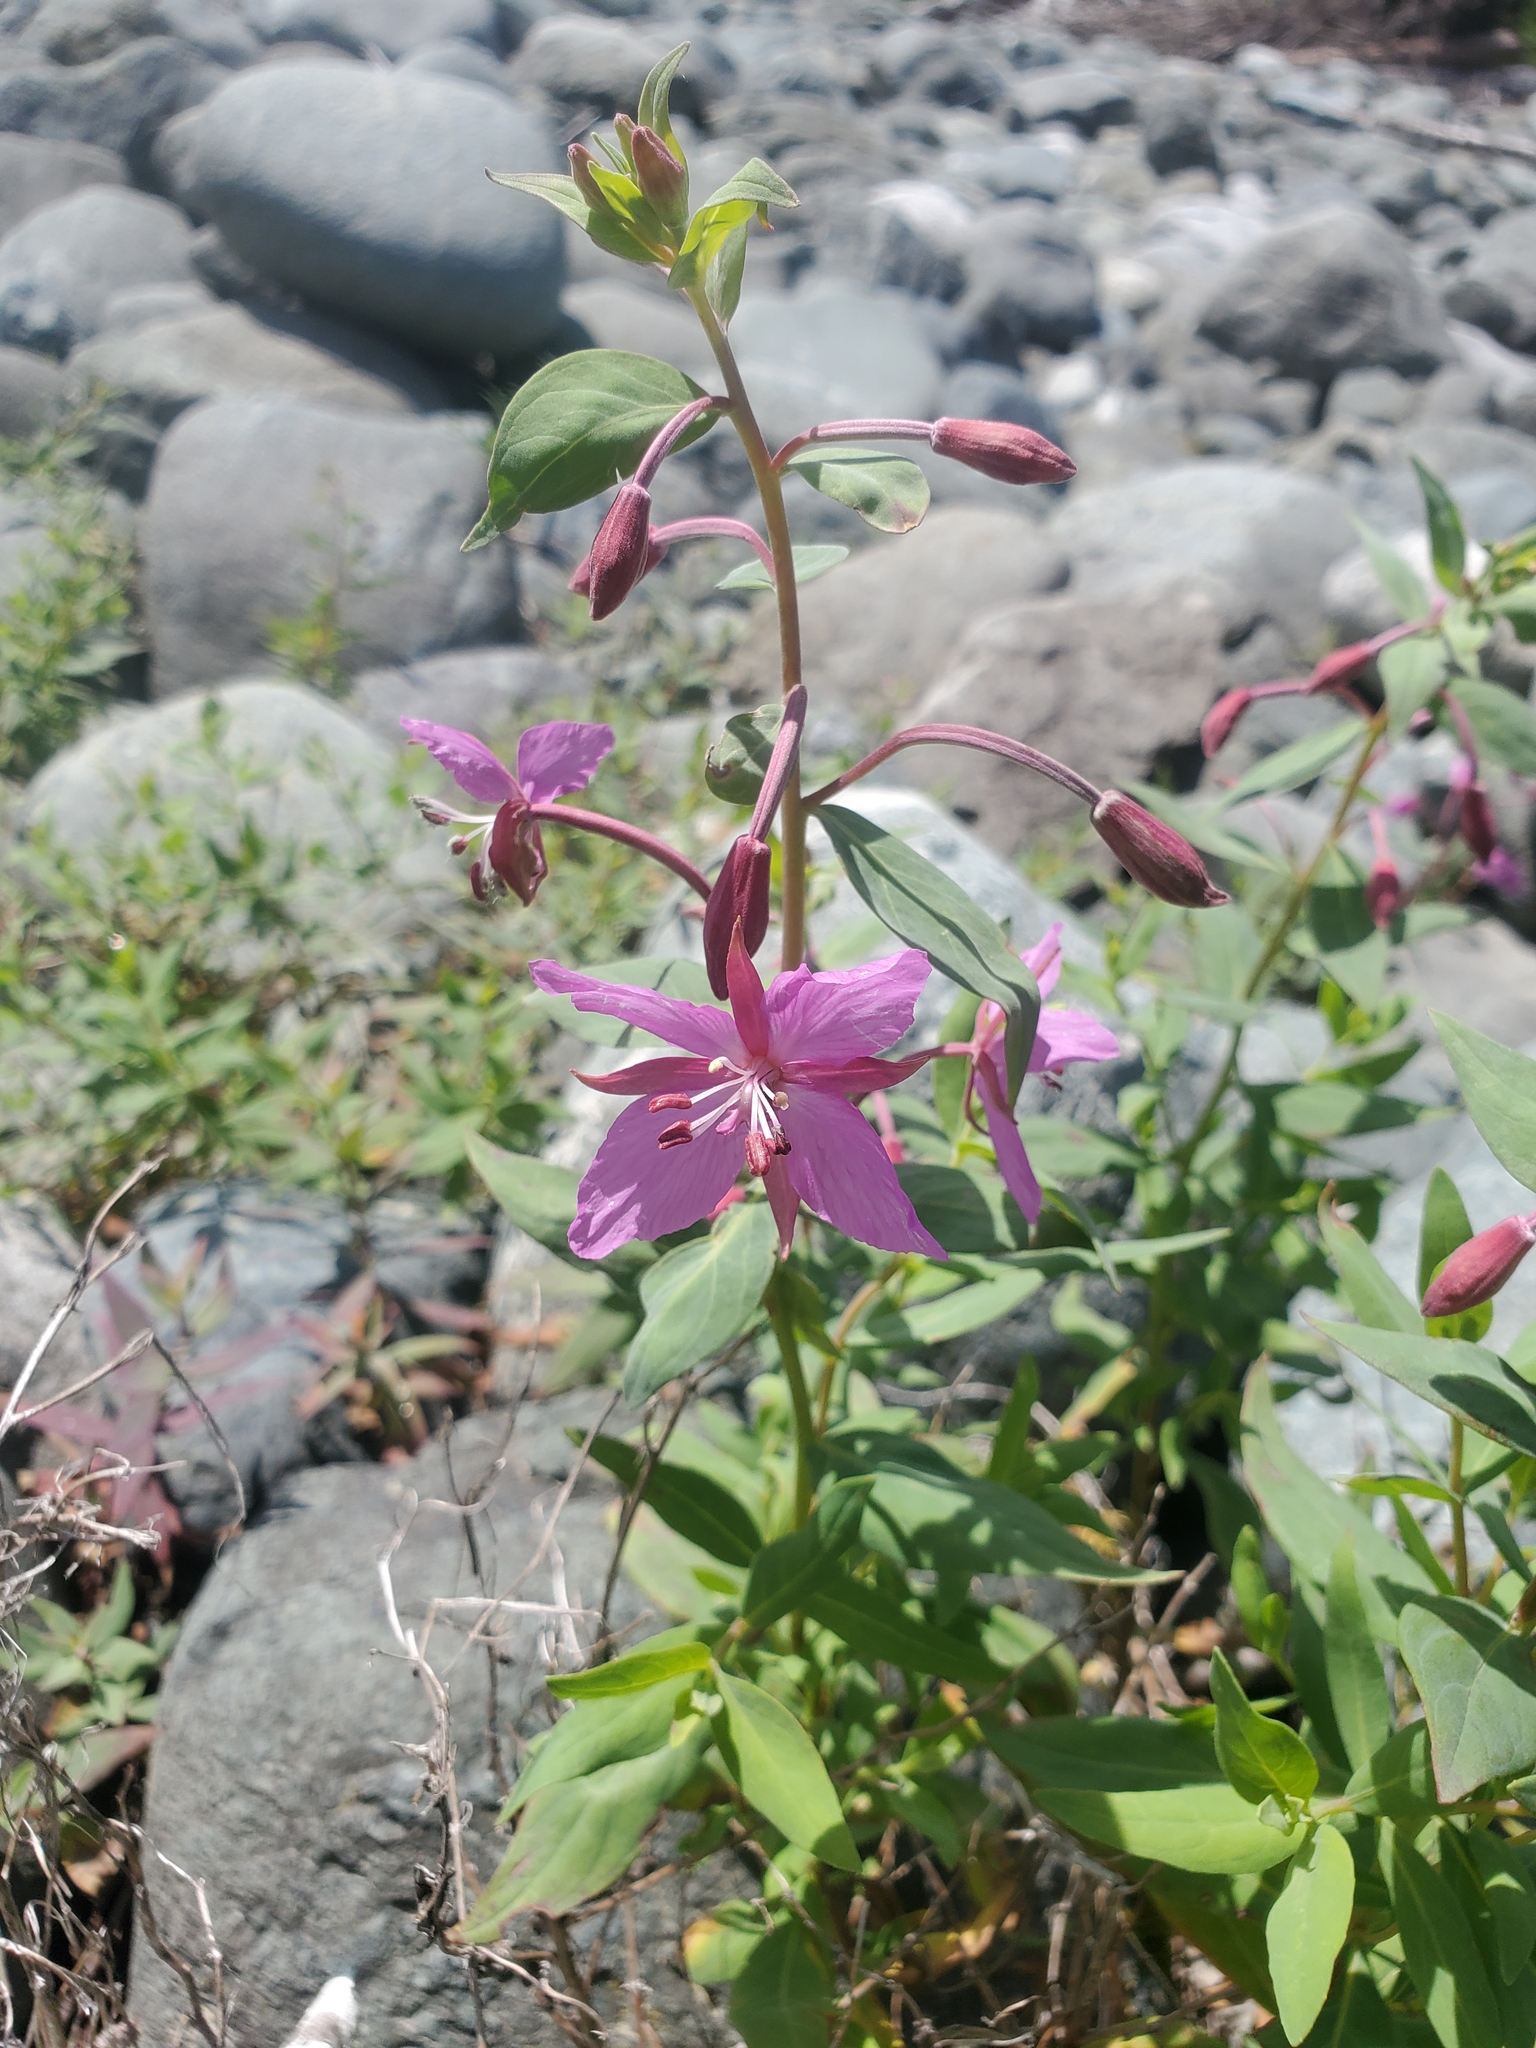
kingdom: Plantae
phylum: Tracheophyta
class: Magnoliopsida
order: Myrtales
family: Onagraceae
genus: Chamaenerion
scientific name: Chamaenerion latifolium
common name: Dwarf fireweed
